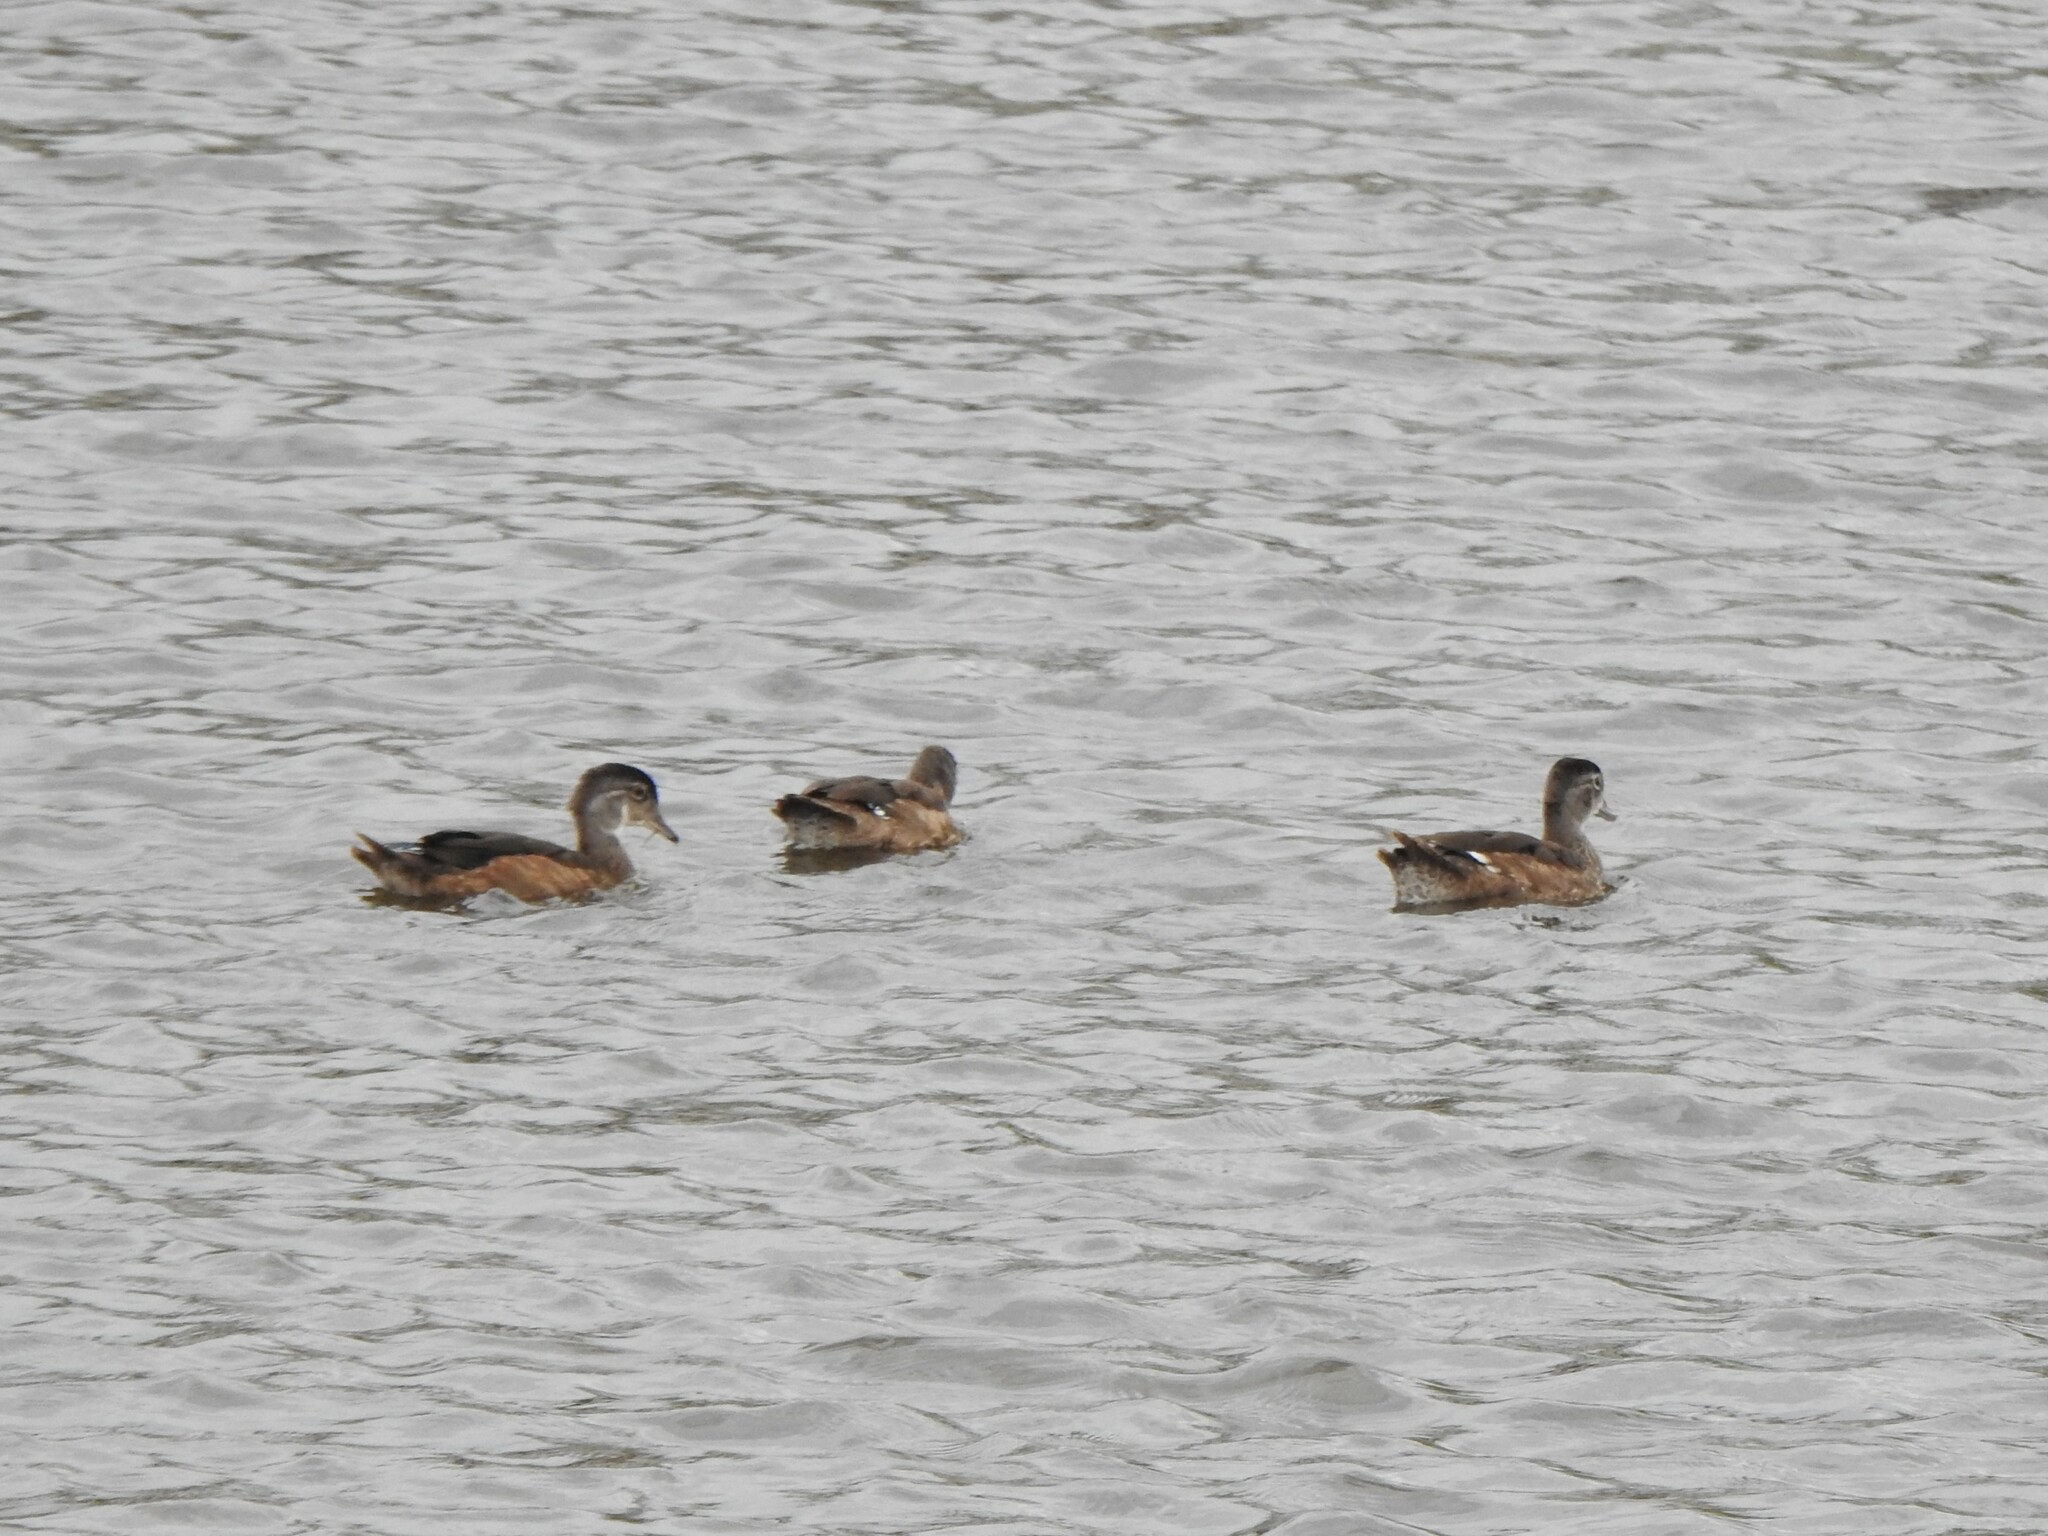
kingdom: Animalia
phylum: Chordata
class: Aves
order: Anseriformes
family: Anatidae
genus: Aix
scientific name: Aix sponsa
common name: Wood duck
